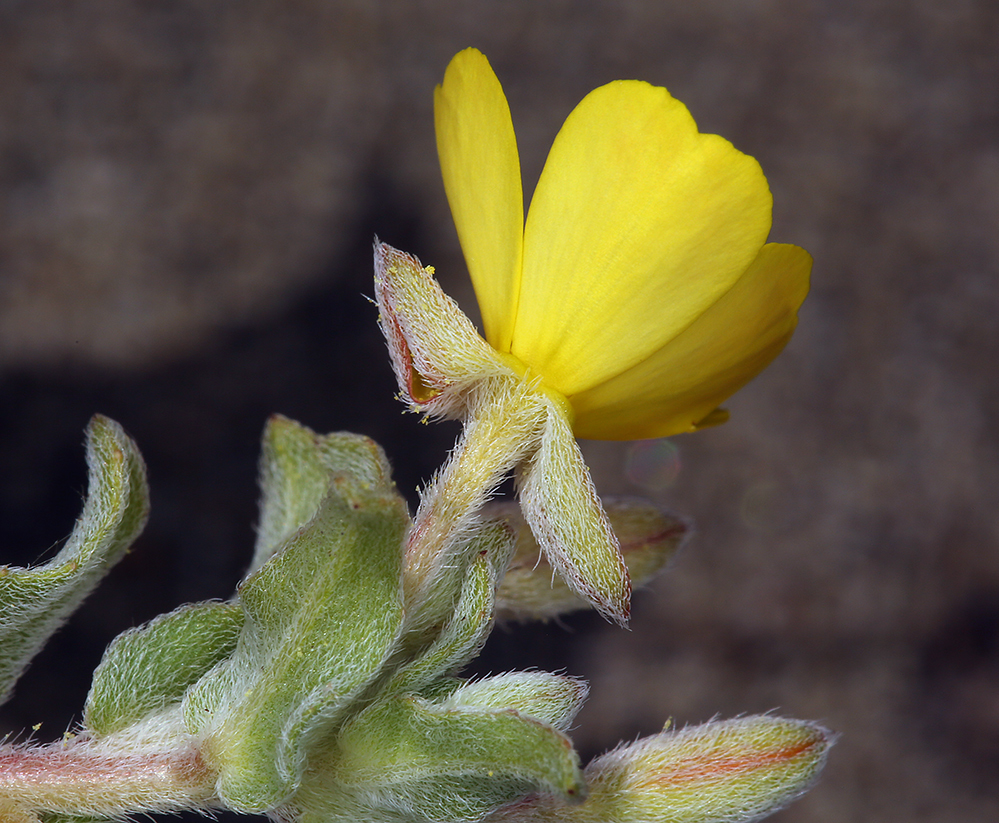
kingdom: Plantae
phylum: Tracheophyta
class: Magnoliopsida
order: Myrtales
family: Onagraceae
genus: Camissoniopsis
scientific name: Camissoniopsis cheiranthifolia
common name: Beach suncup
